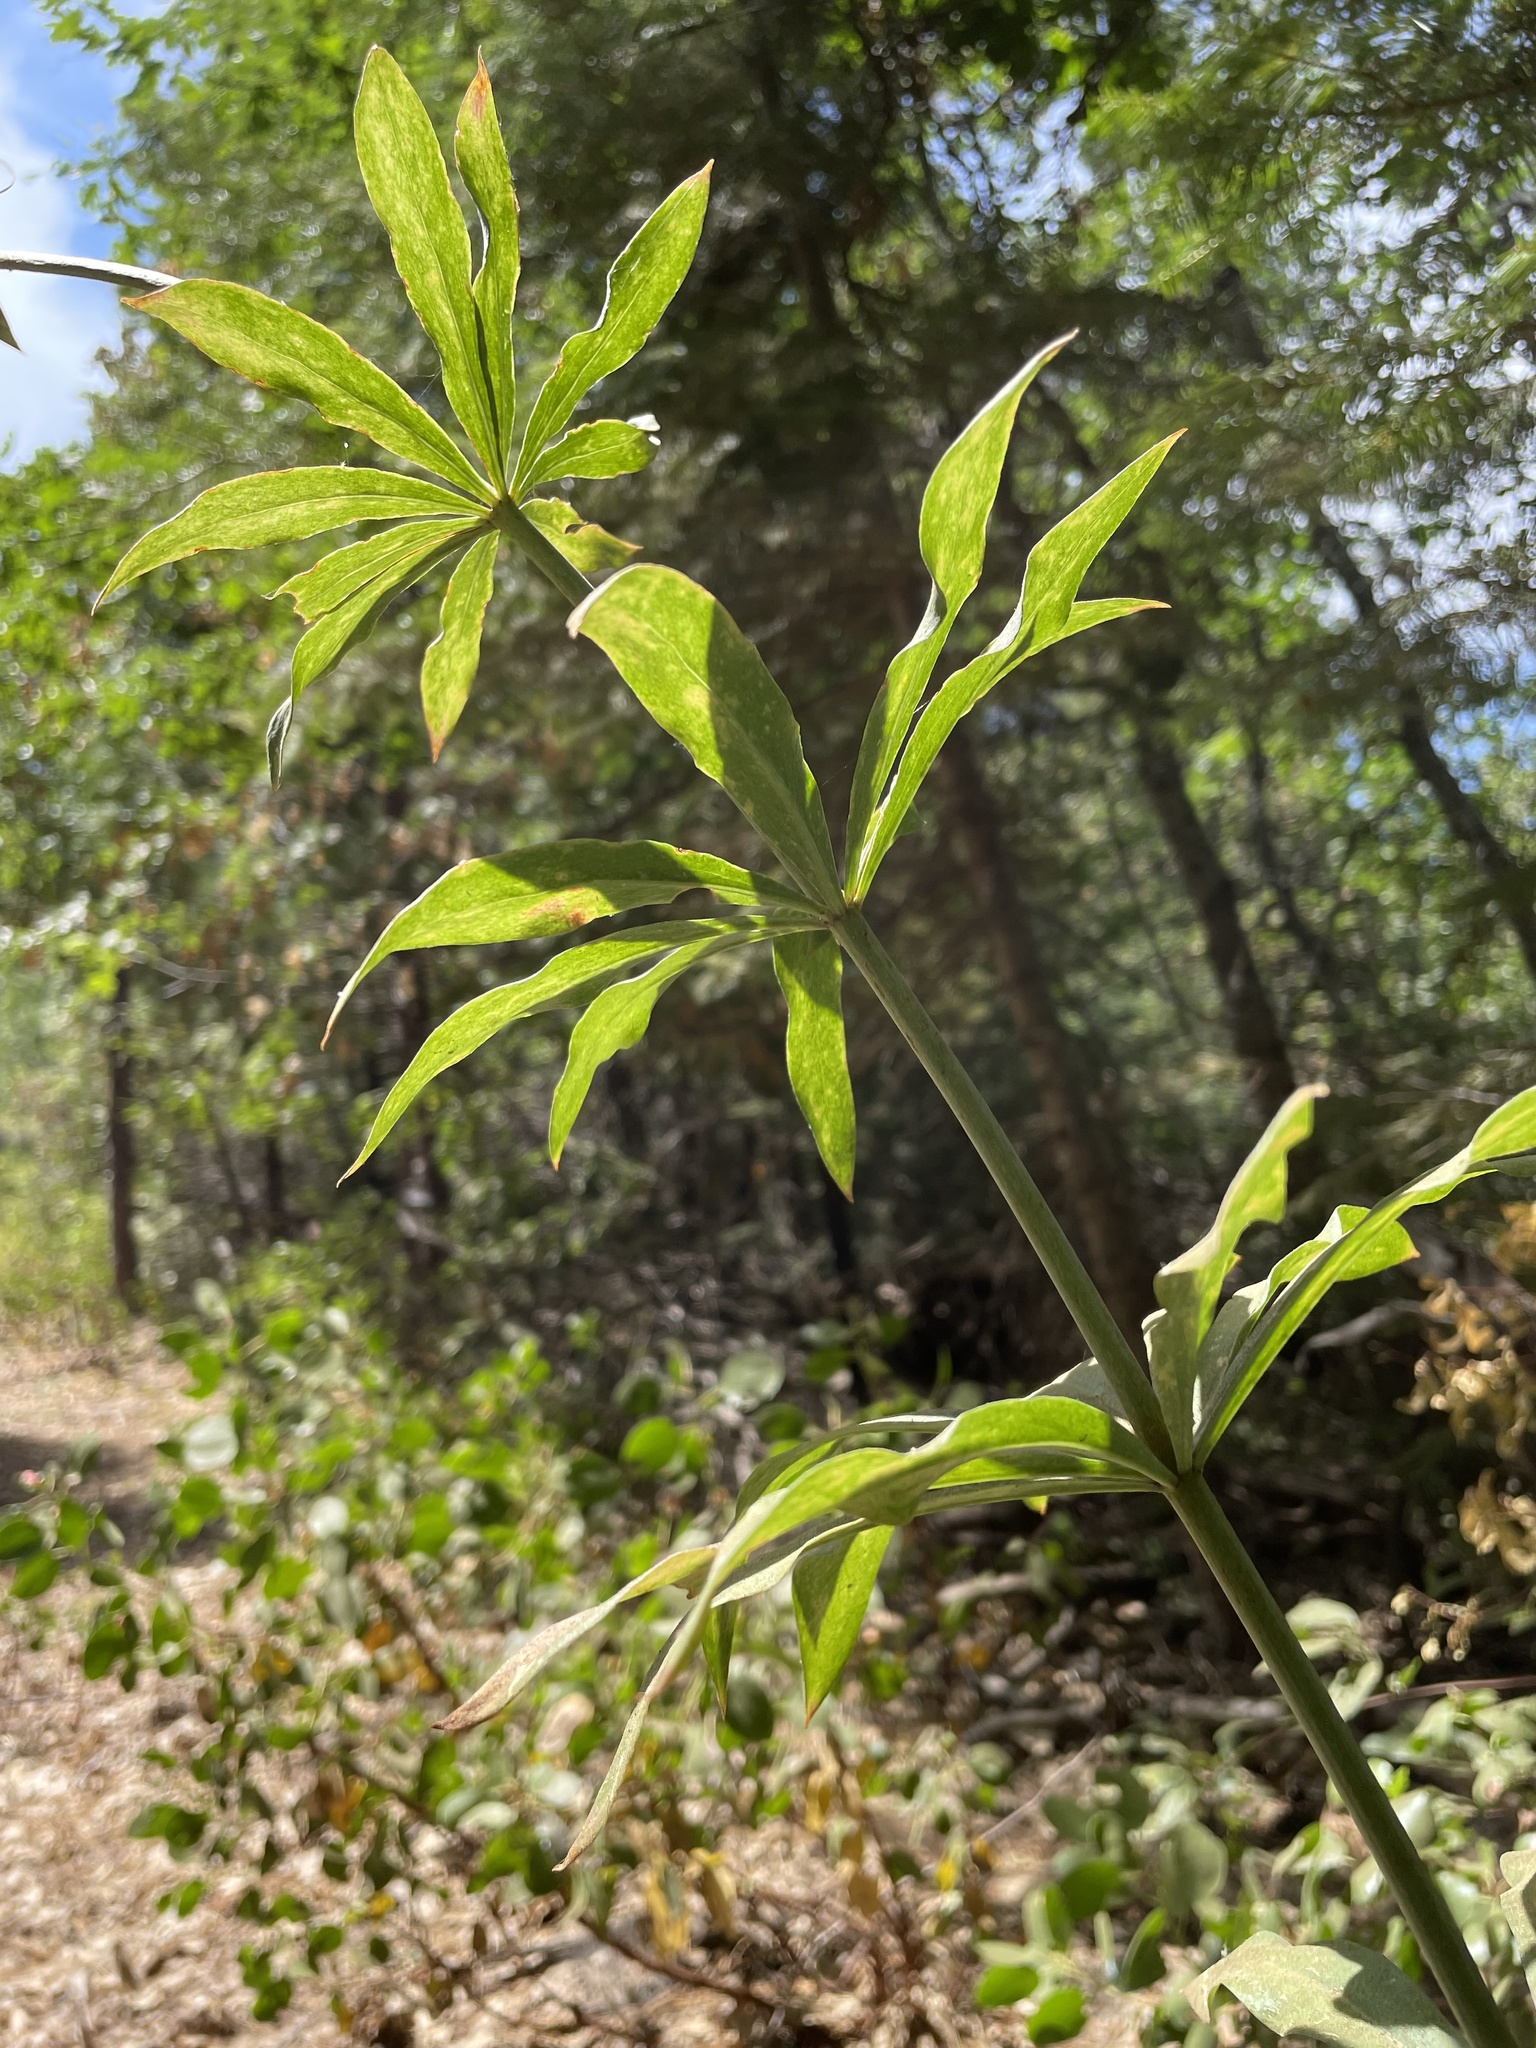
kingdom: Plantae
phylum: Tracheophyta
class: Liliopsida
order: Liliales
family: Liliaceae
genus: Lilium
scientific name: Lilium humboldtii
